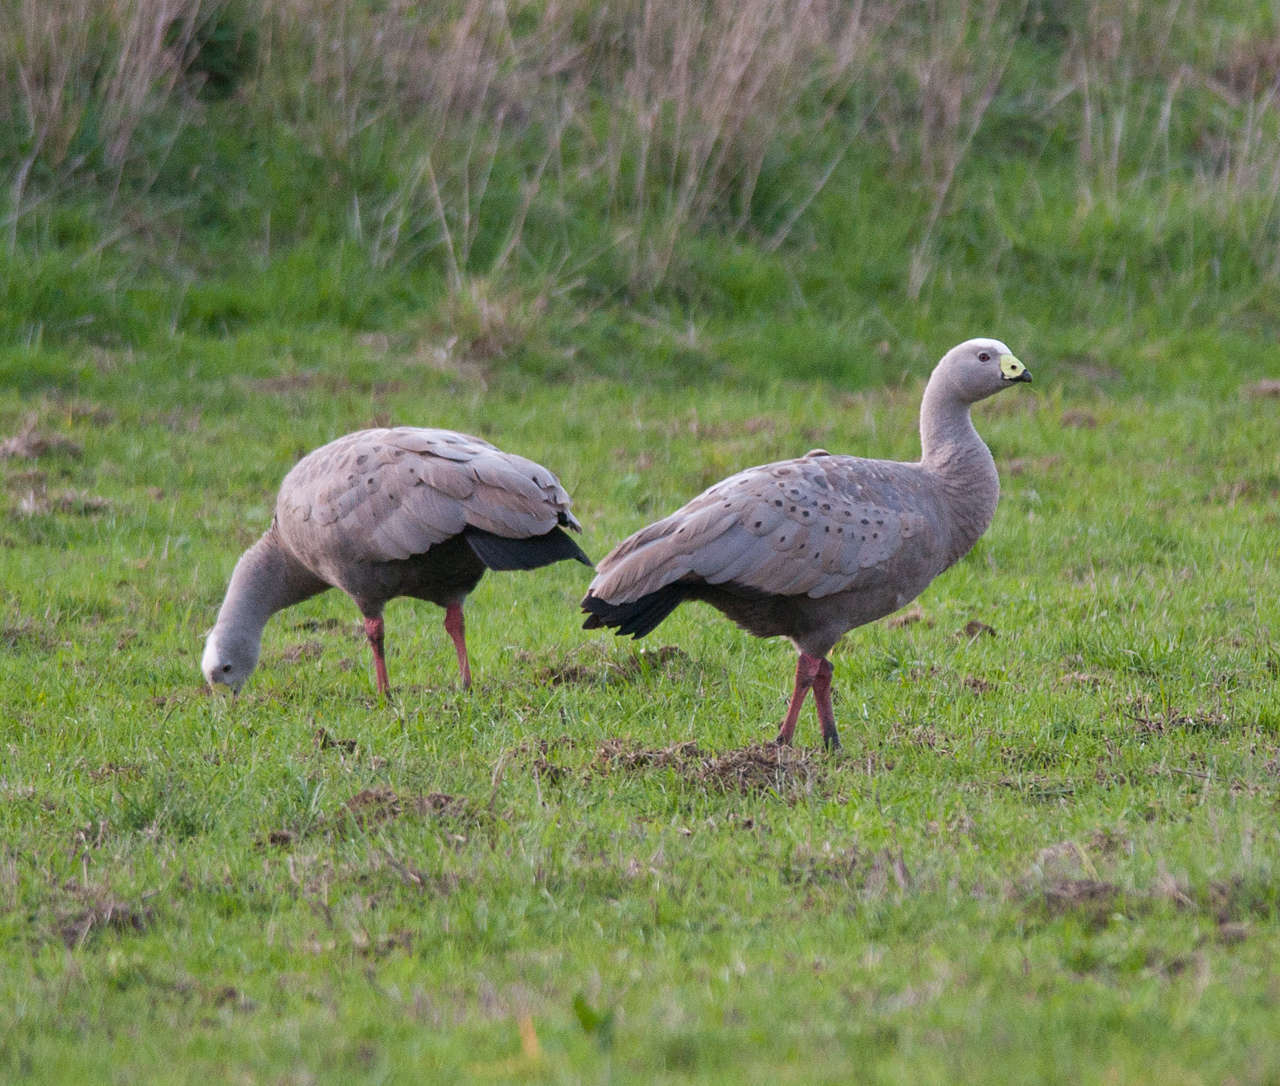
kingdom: Animalia
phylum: Chordata
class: Aves
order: Anseriformes
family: Anatidae
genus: Cereopsis
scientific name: Cereopsis novaehollandiae
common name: Cape barren goose
